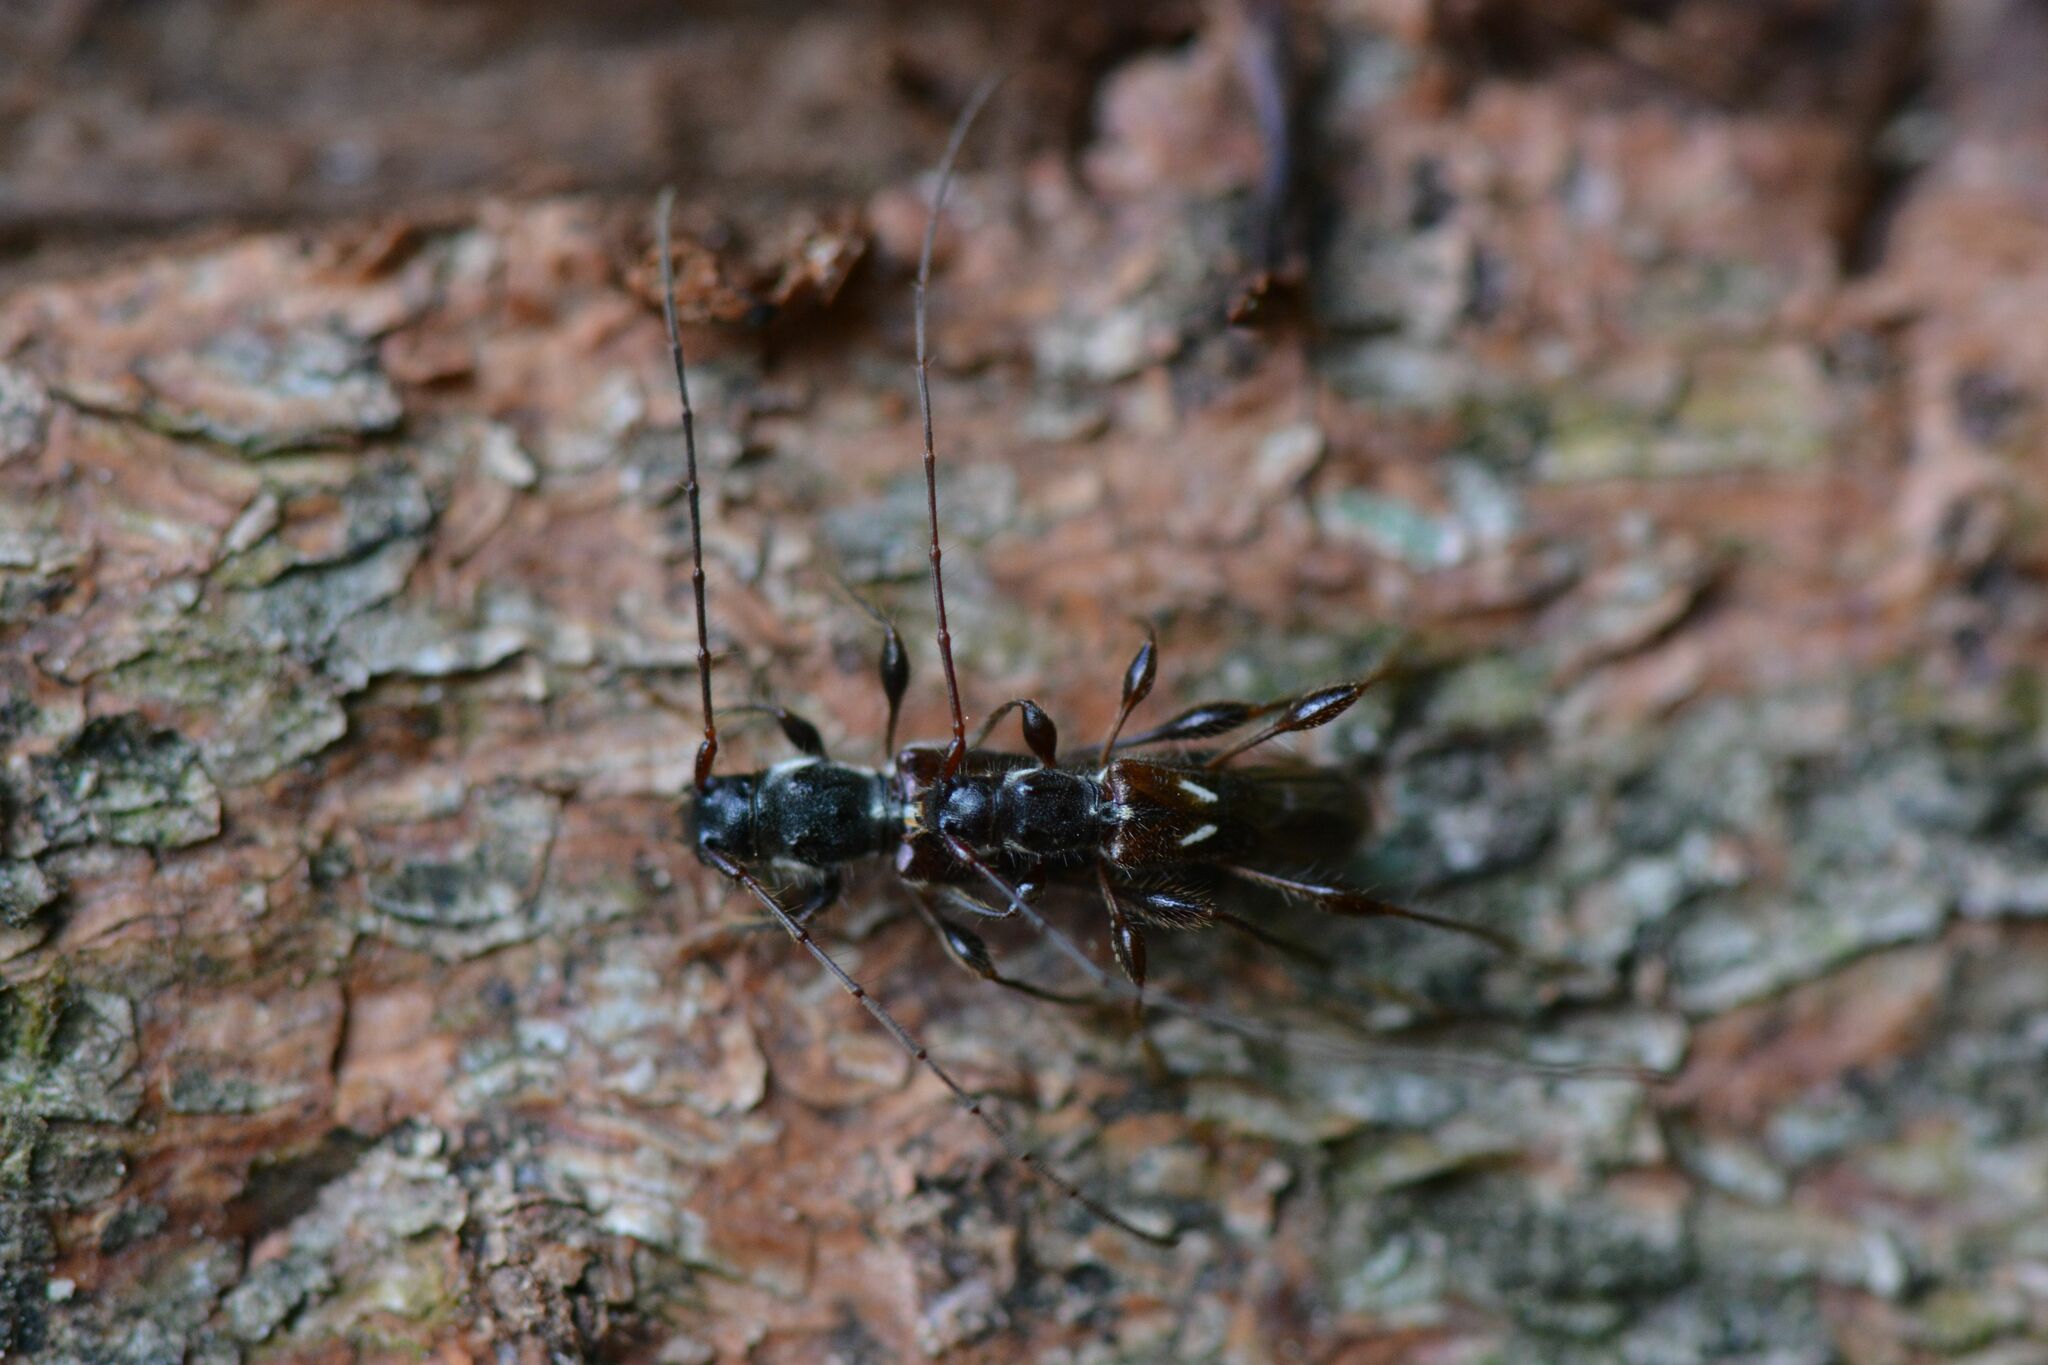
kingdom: Animalia
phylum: Arthropoda
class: Insecta
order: Coleoptera
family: Cerambycidae
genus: Molorchus
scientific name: Molorchus minor
